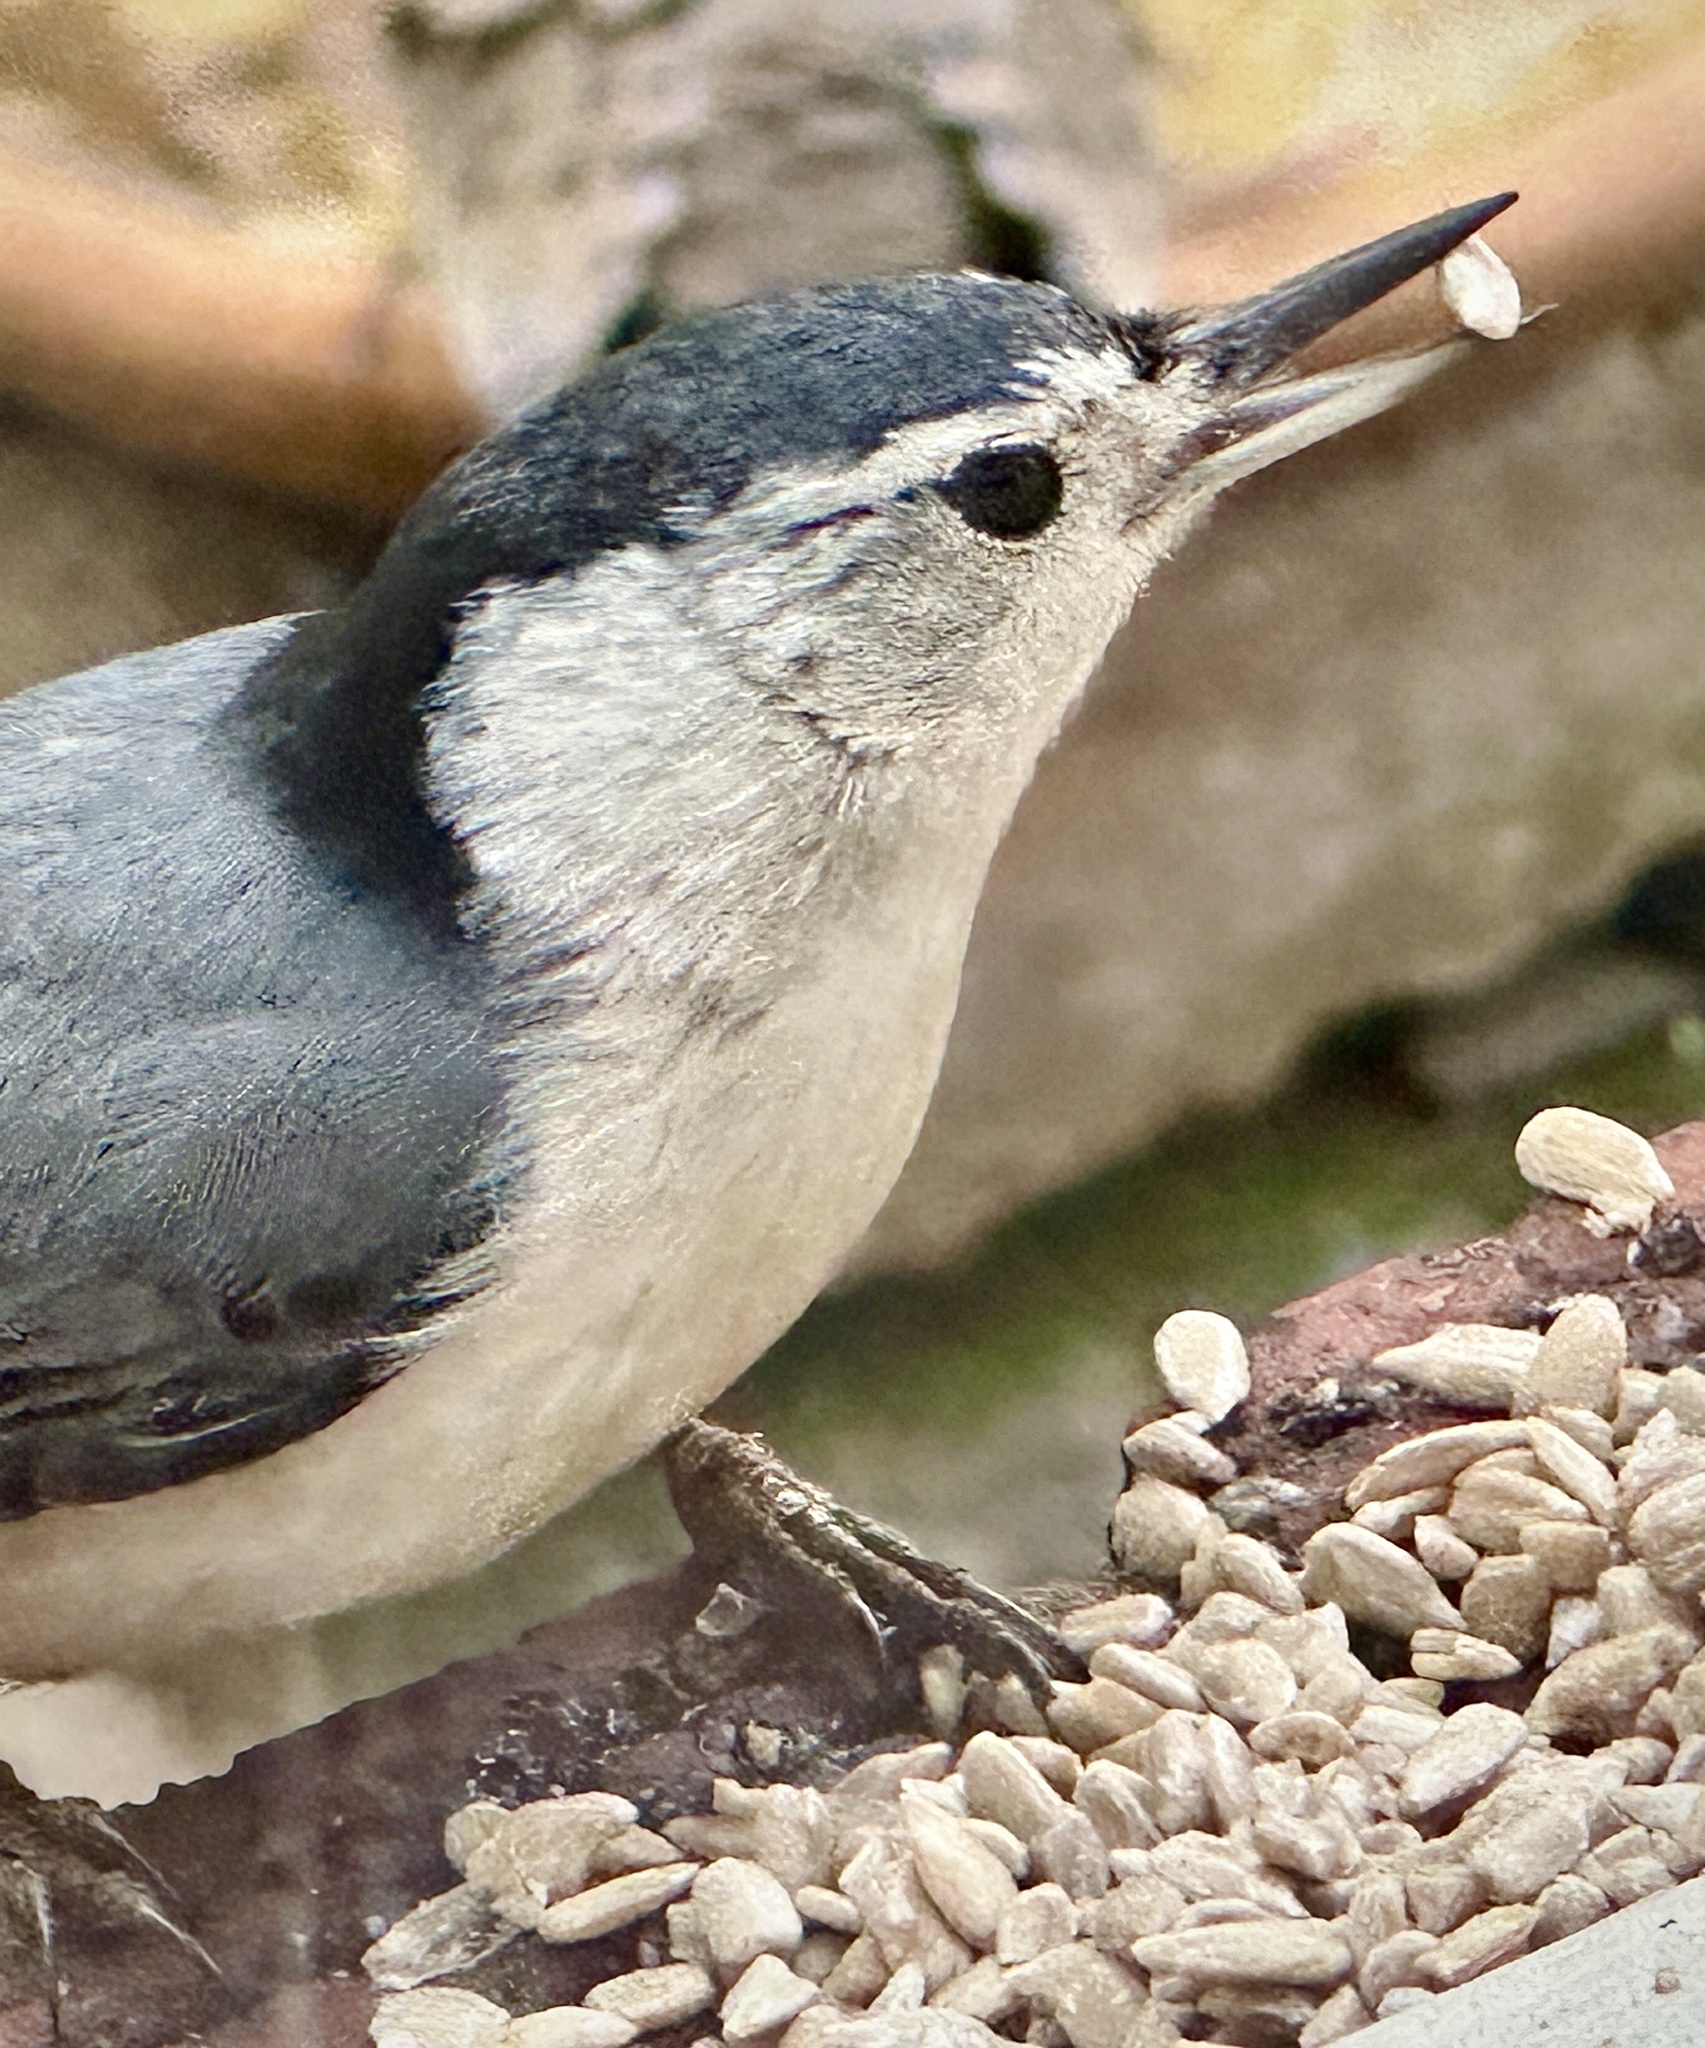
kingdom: Animalia
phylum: Chordata
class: Aves
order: Passeriformes
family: Sittidae
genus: Sitta
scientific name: Sitta carolinensis
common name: White-breasted nuthatch
